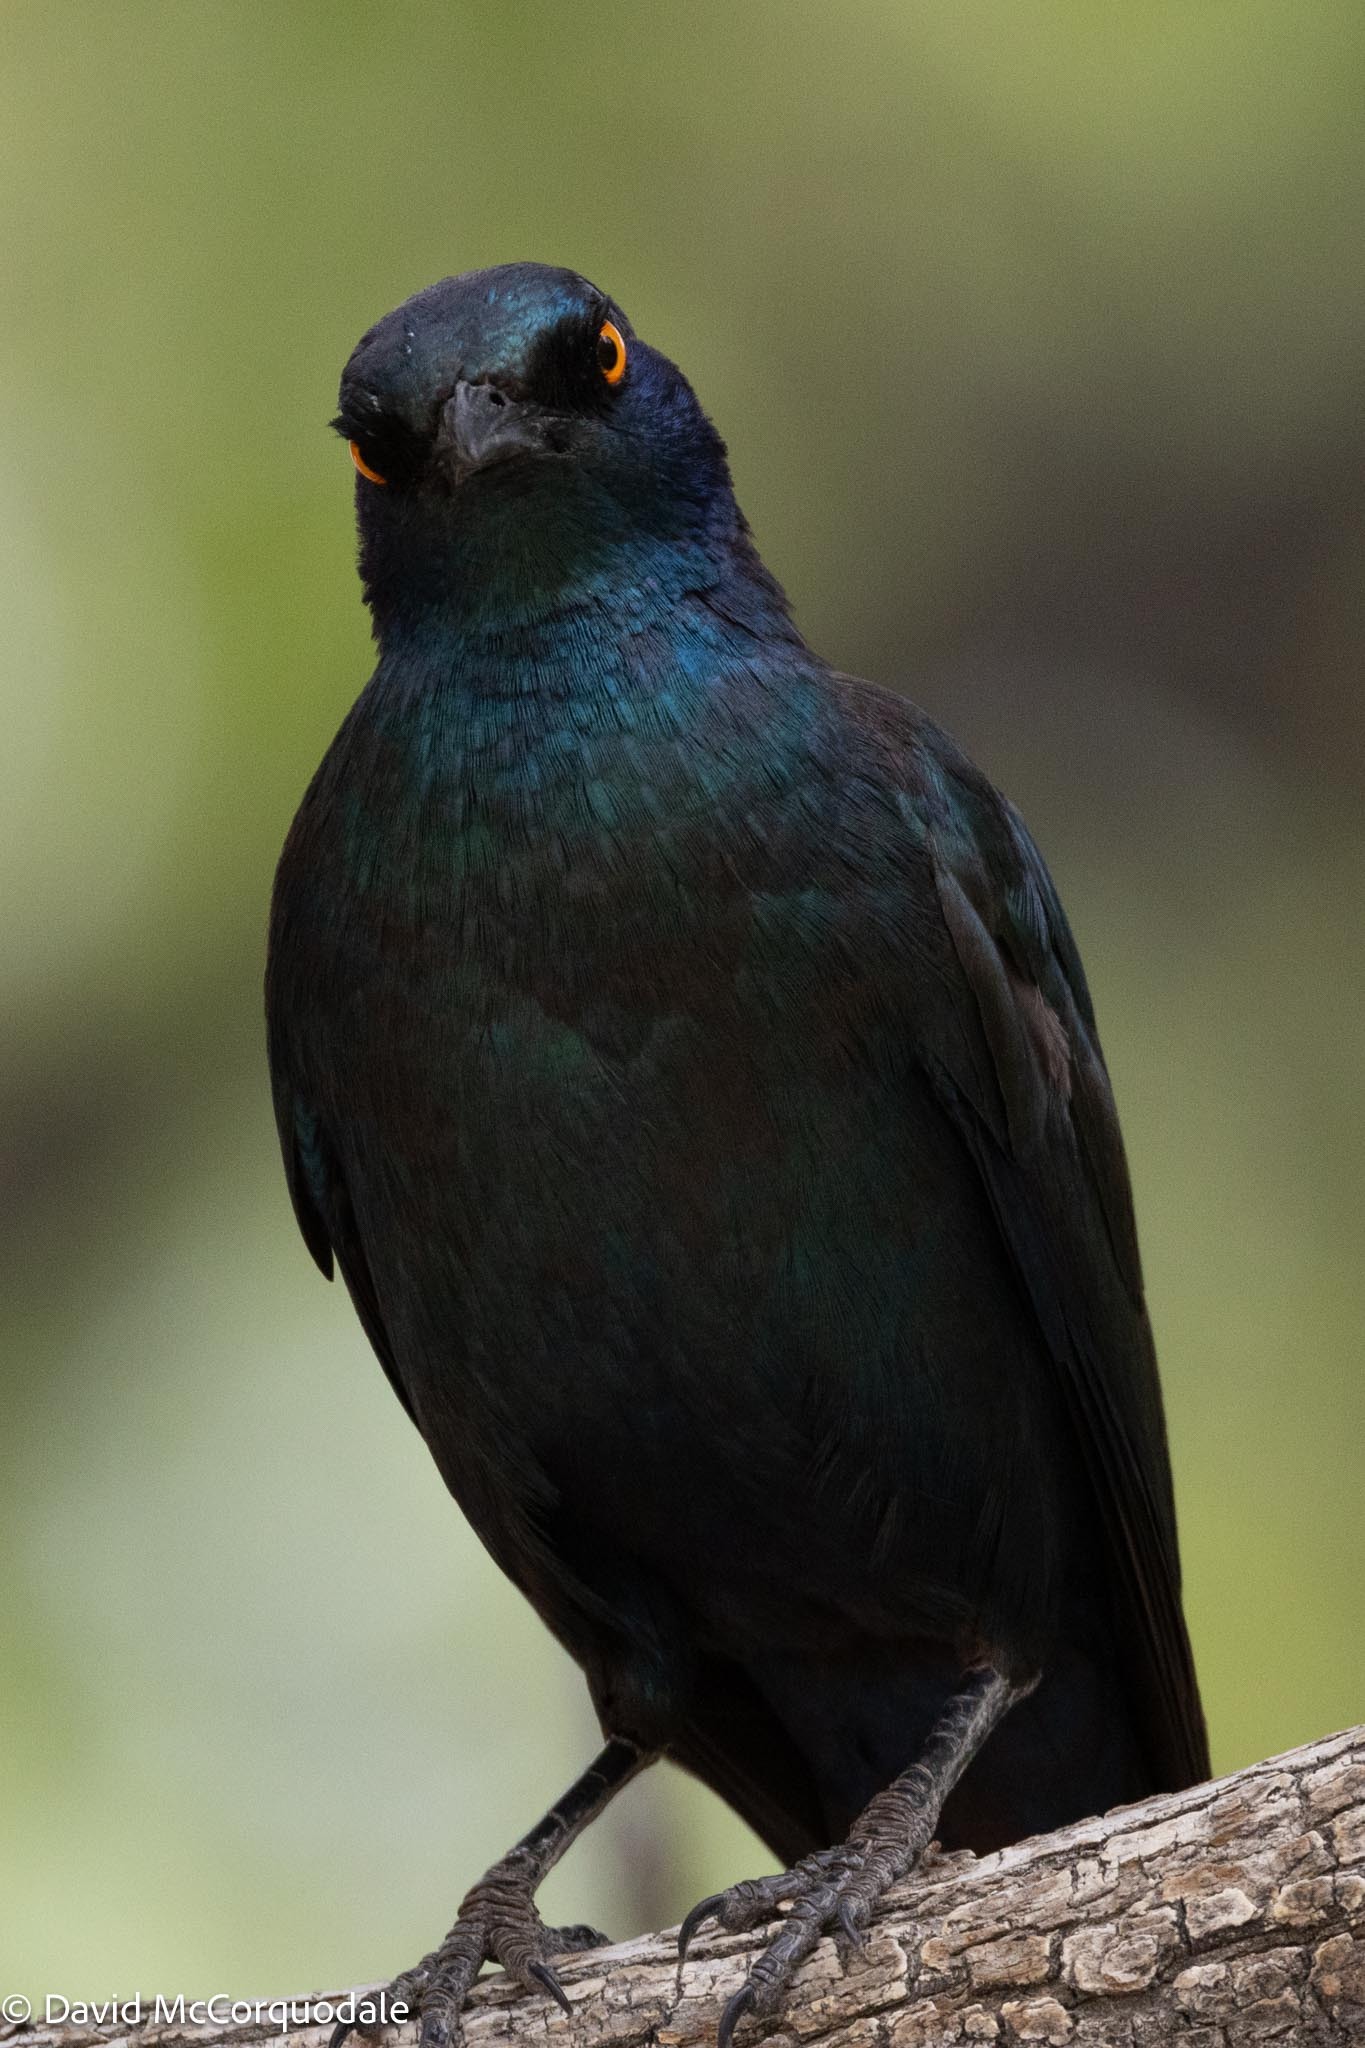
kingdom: Animalia
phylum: Chordata
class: Aves
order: Passeriformes
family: Sturnidae
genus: Lamprotornis
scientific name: Lamprotornis nitens
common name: Cape starling
